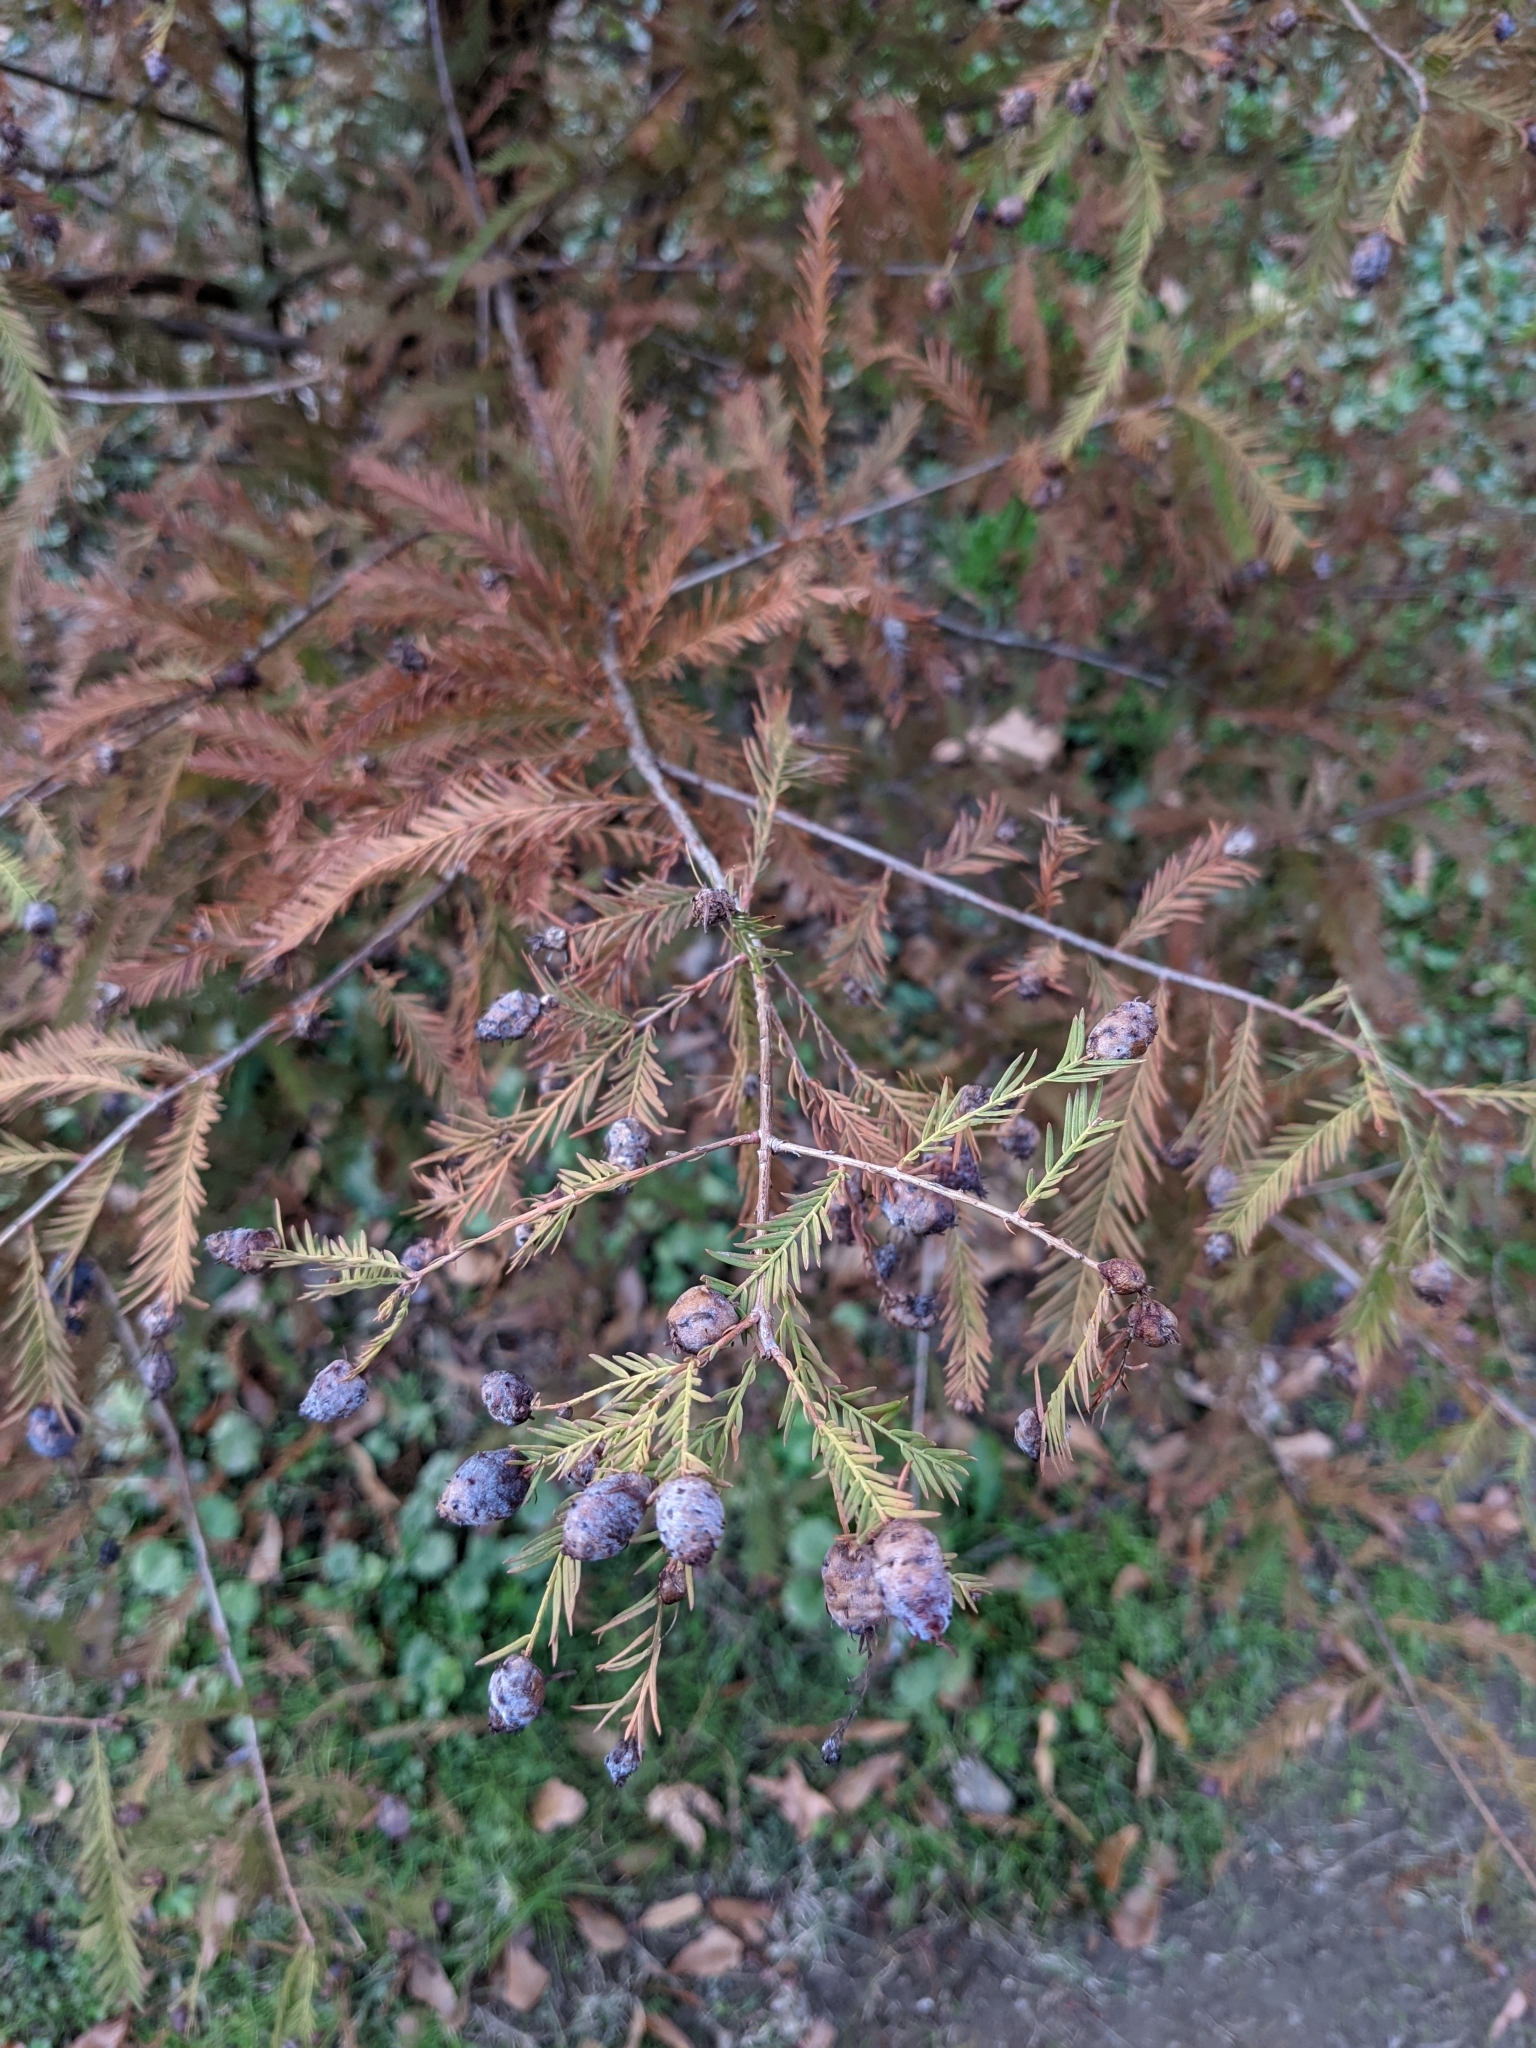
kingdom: Animalia
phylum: Arthropoda
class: Insecta
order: Diptera
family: Cecidomyiidae
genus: Taxodiomyia
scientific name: Taxodiomyia cupressiananassa
